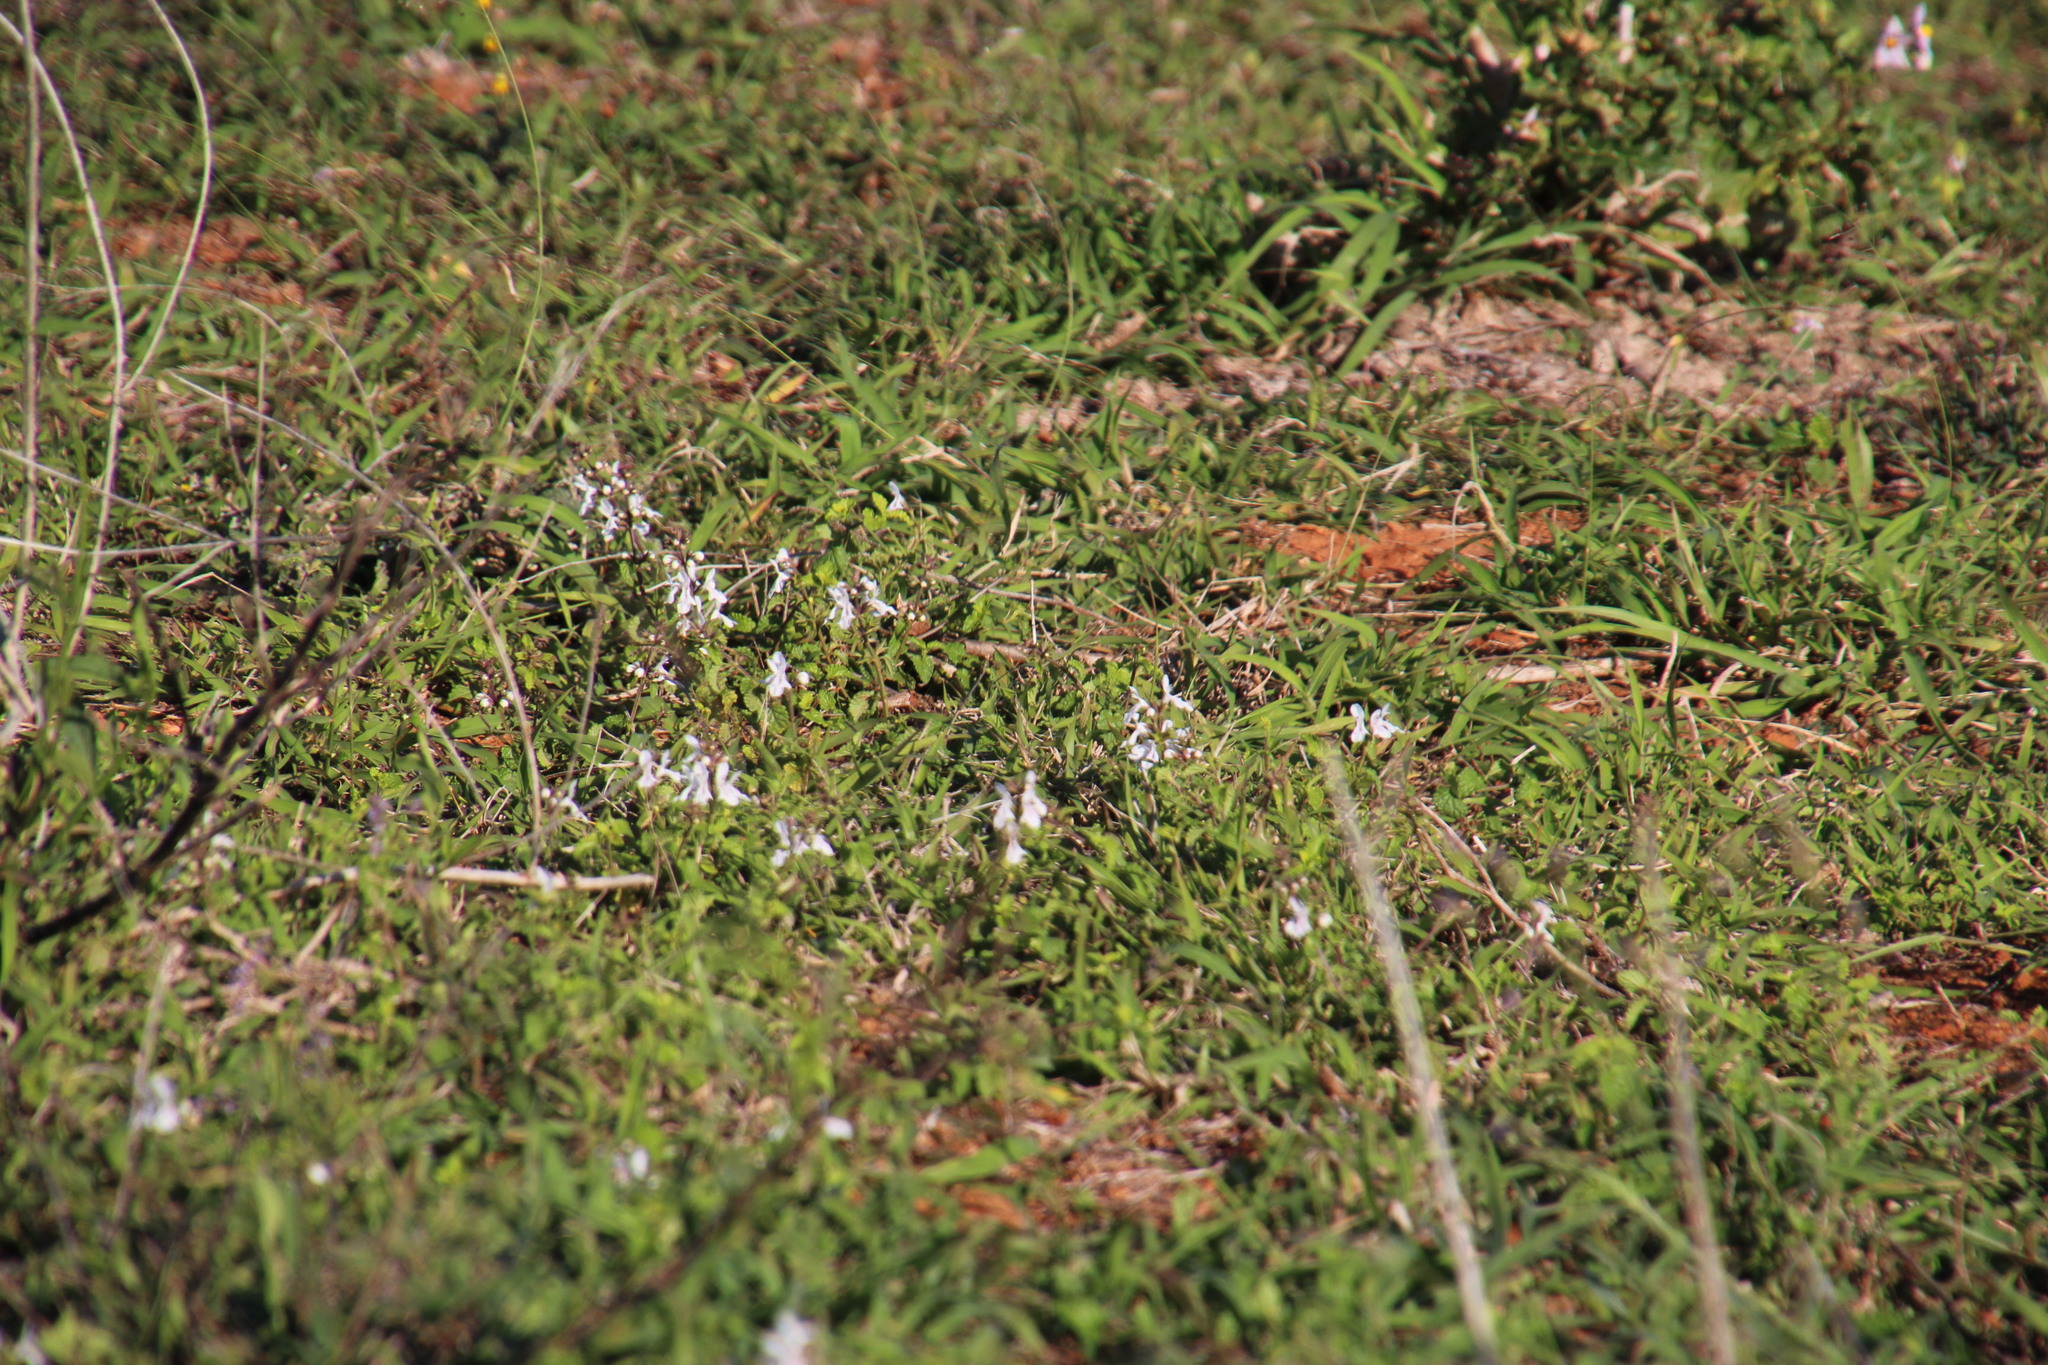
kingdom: Plantae
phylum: Tracheophyta
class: Magnoliopsida
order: Lamiales
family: Lamiaceae
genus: Stachys
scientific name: Stachys aethiopica
